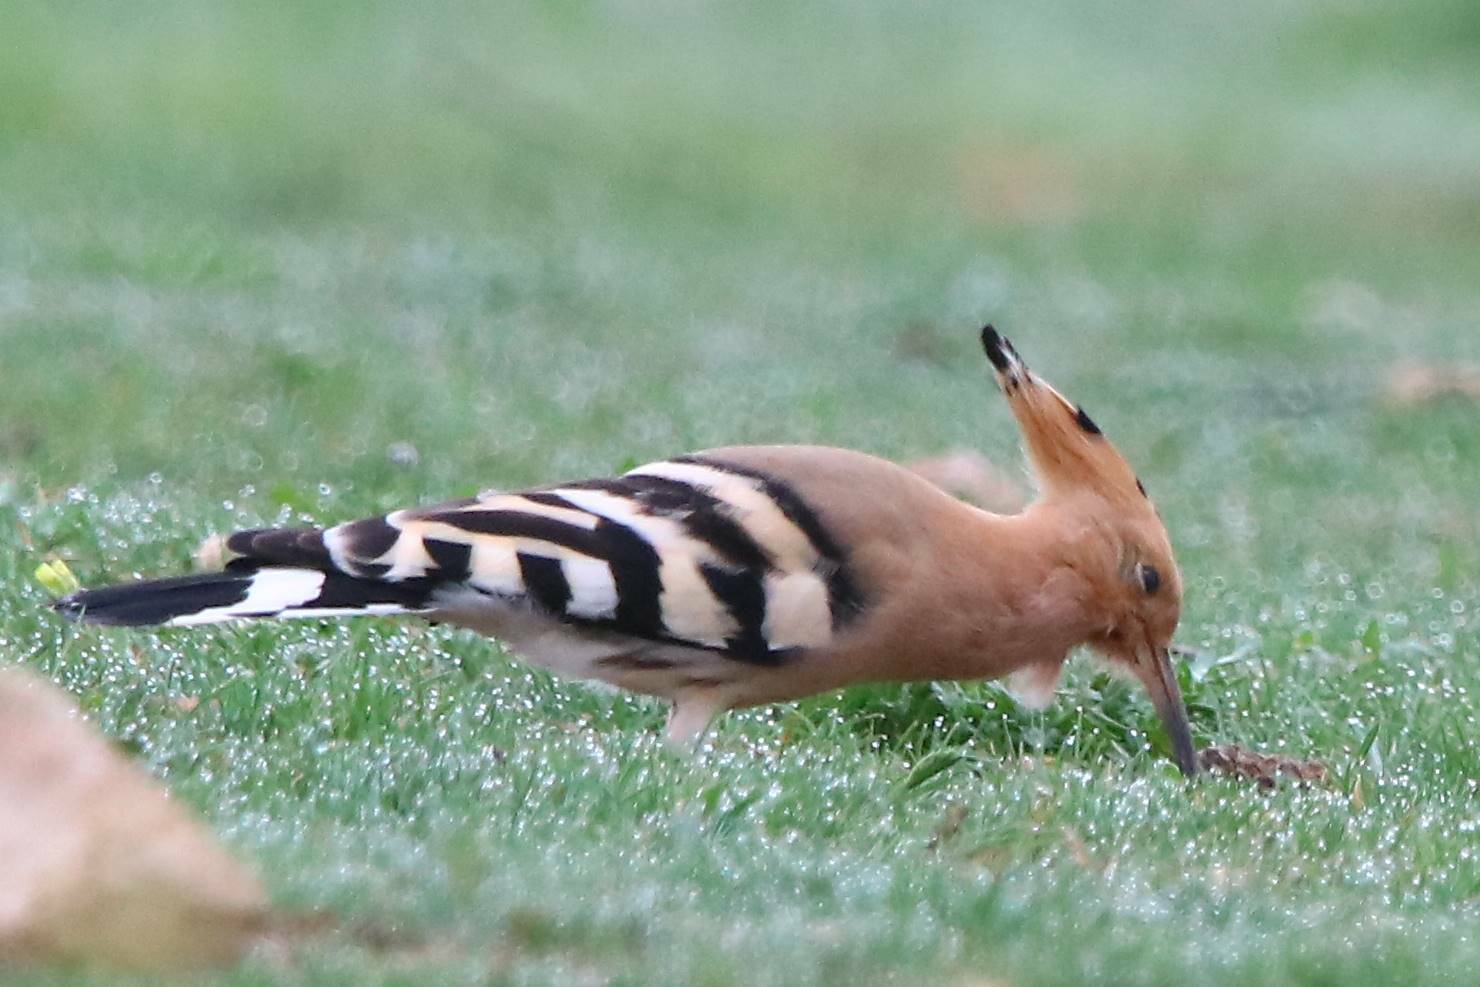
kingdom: Animalia
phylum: Chordata
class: Aves
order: Bucerotiformes
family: Upupidae
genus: Upupa
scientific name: Upupa epops
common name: Eurasian hoopoe
